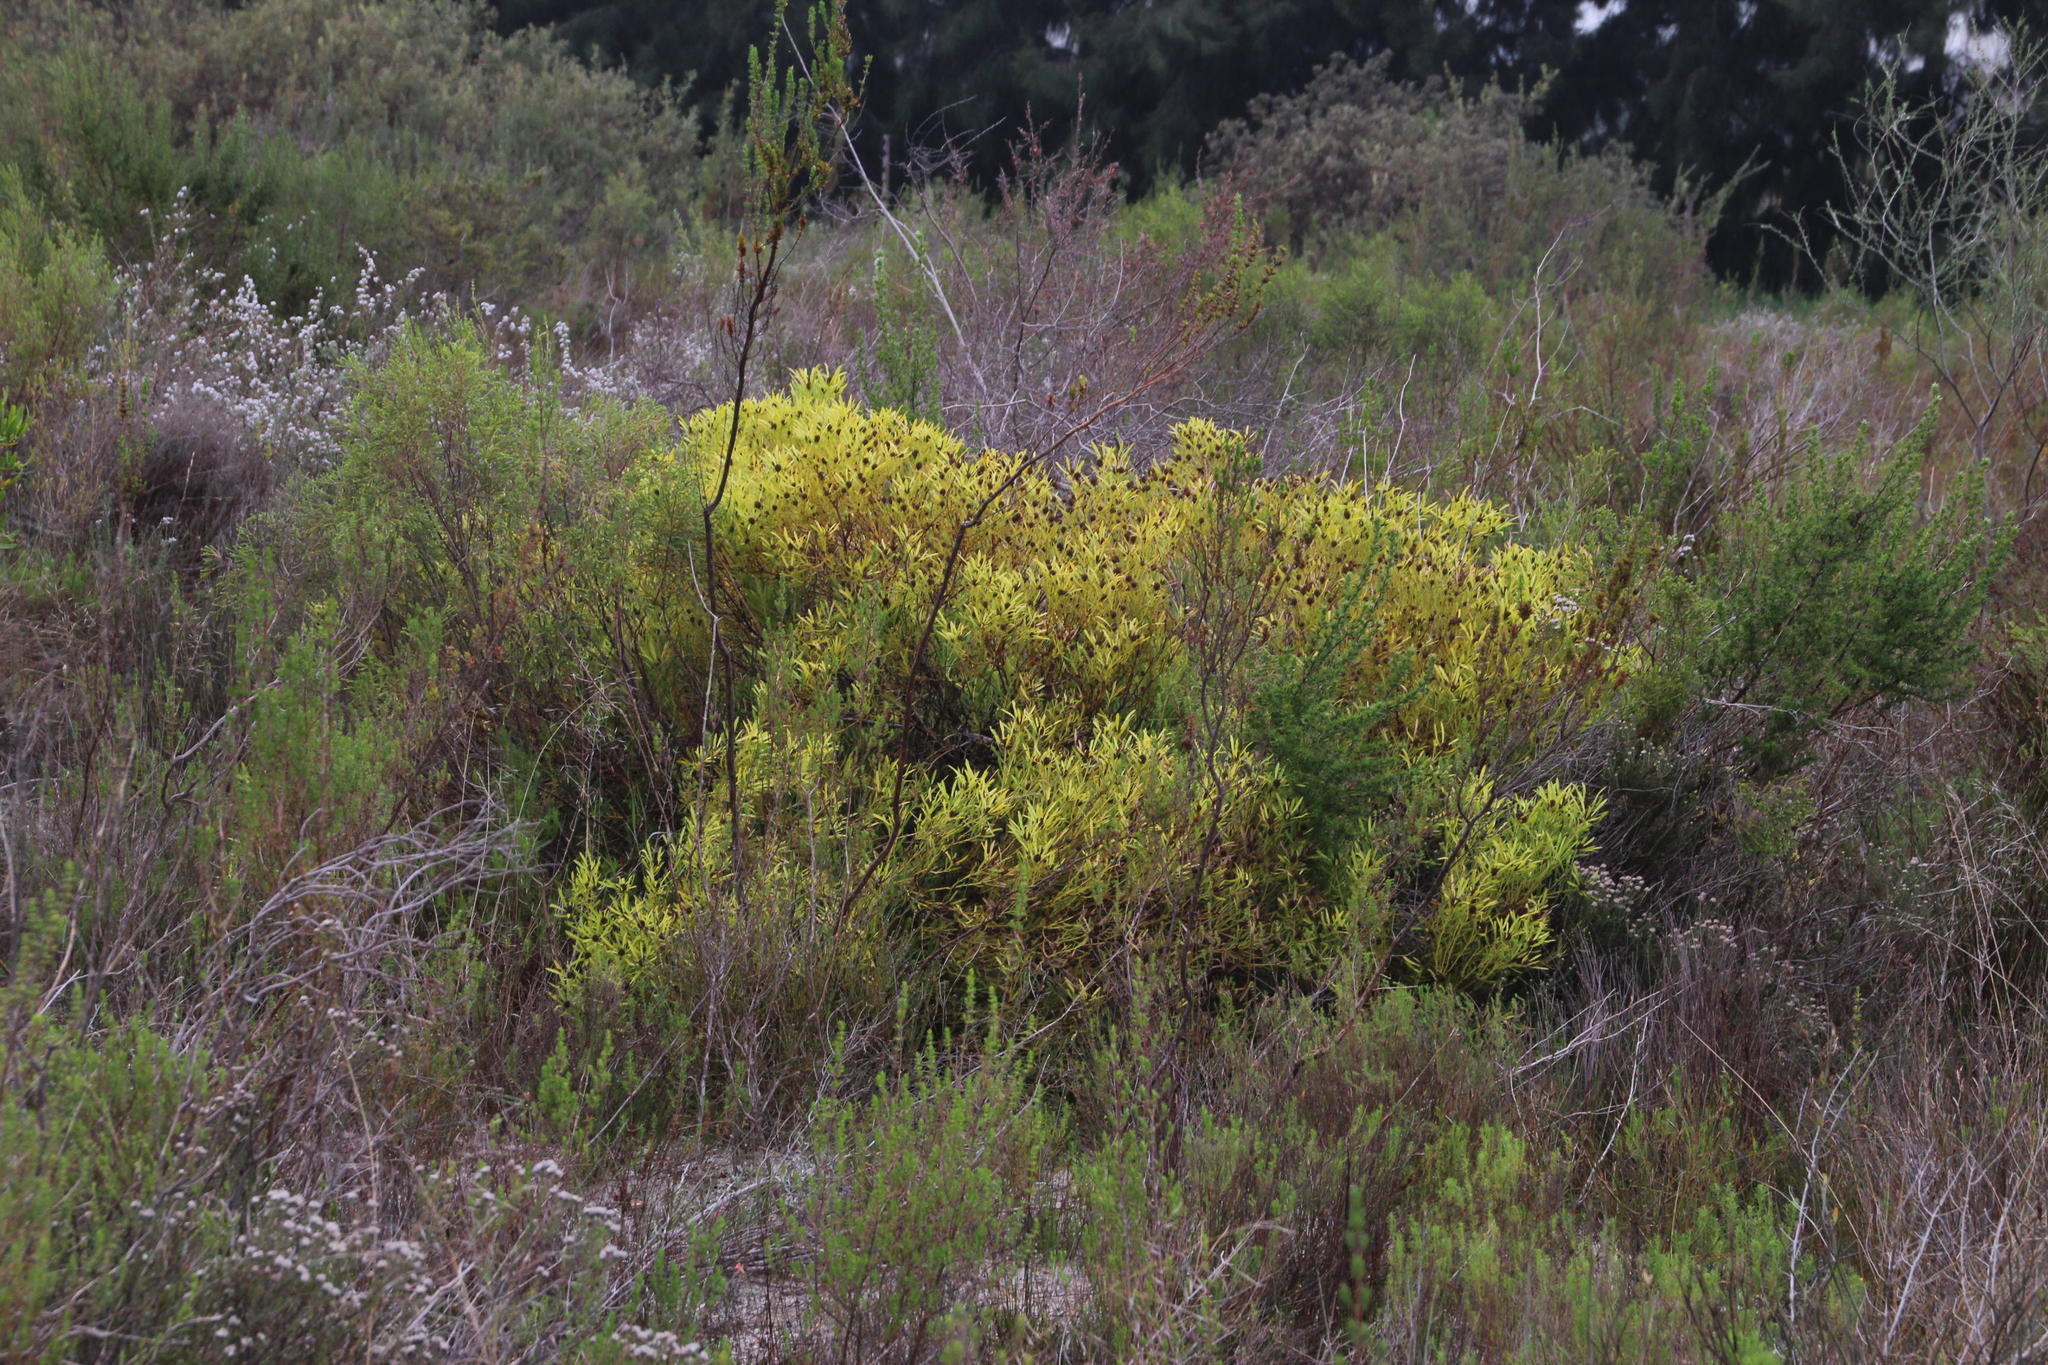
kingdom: Plantae
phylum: Tracheophyta
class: Magnoliopsida
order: Proteales
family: Proteaceae
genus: Leucadendron
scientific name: Leucadendron salignum
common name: Common sunshine conebush
